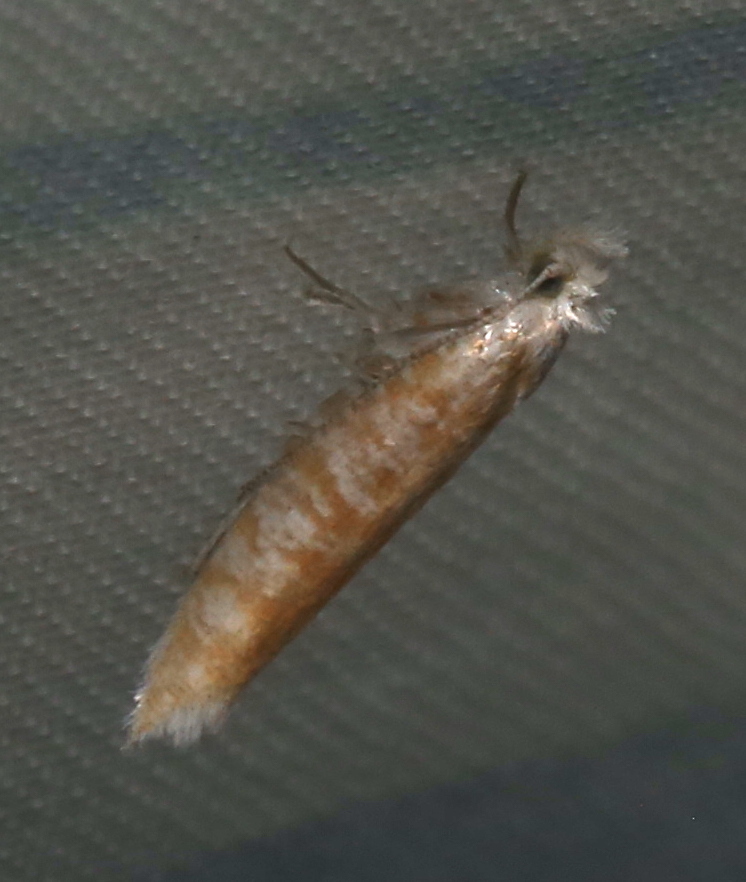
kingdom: Animalia
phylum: Arthropoda
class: Insecta
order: Lepidoptera
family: Yponomeutidae
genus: Zelleria
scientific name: Zelleria retiniella
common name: Brindled zelleria
